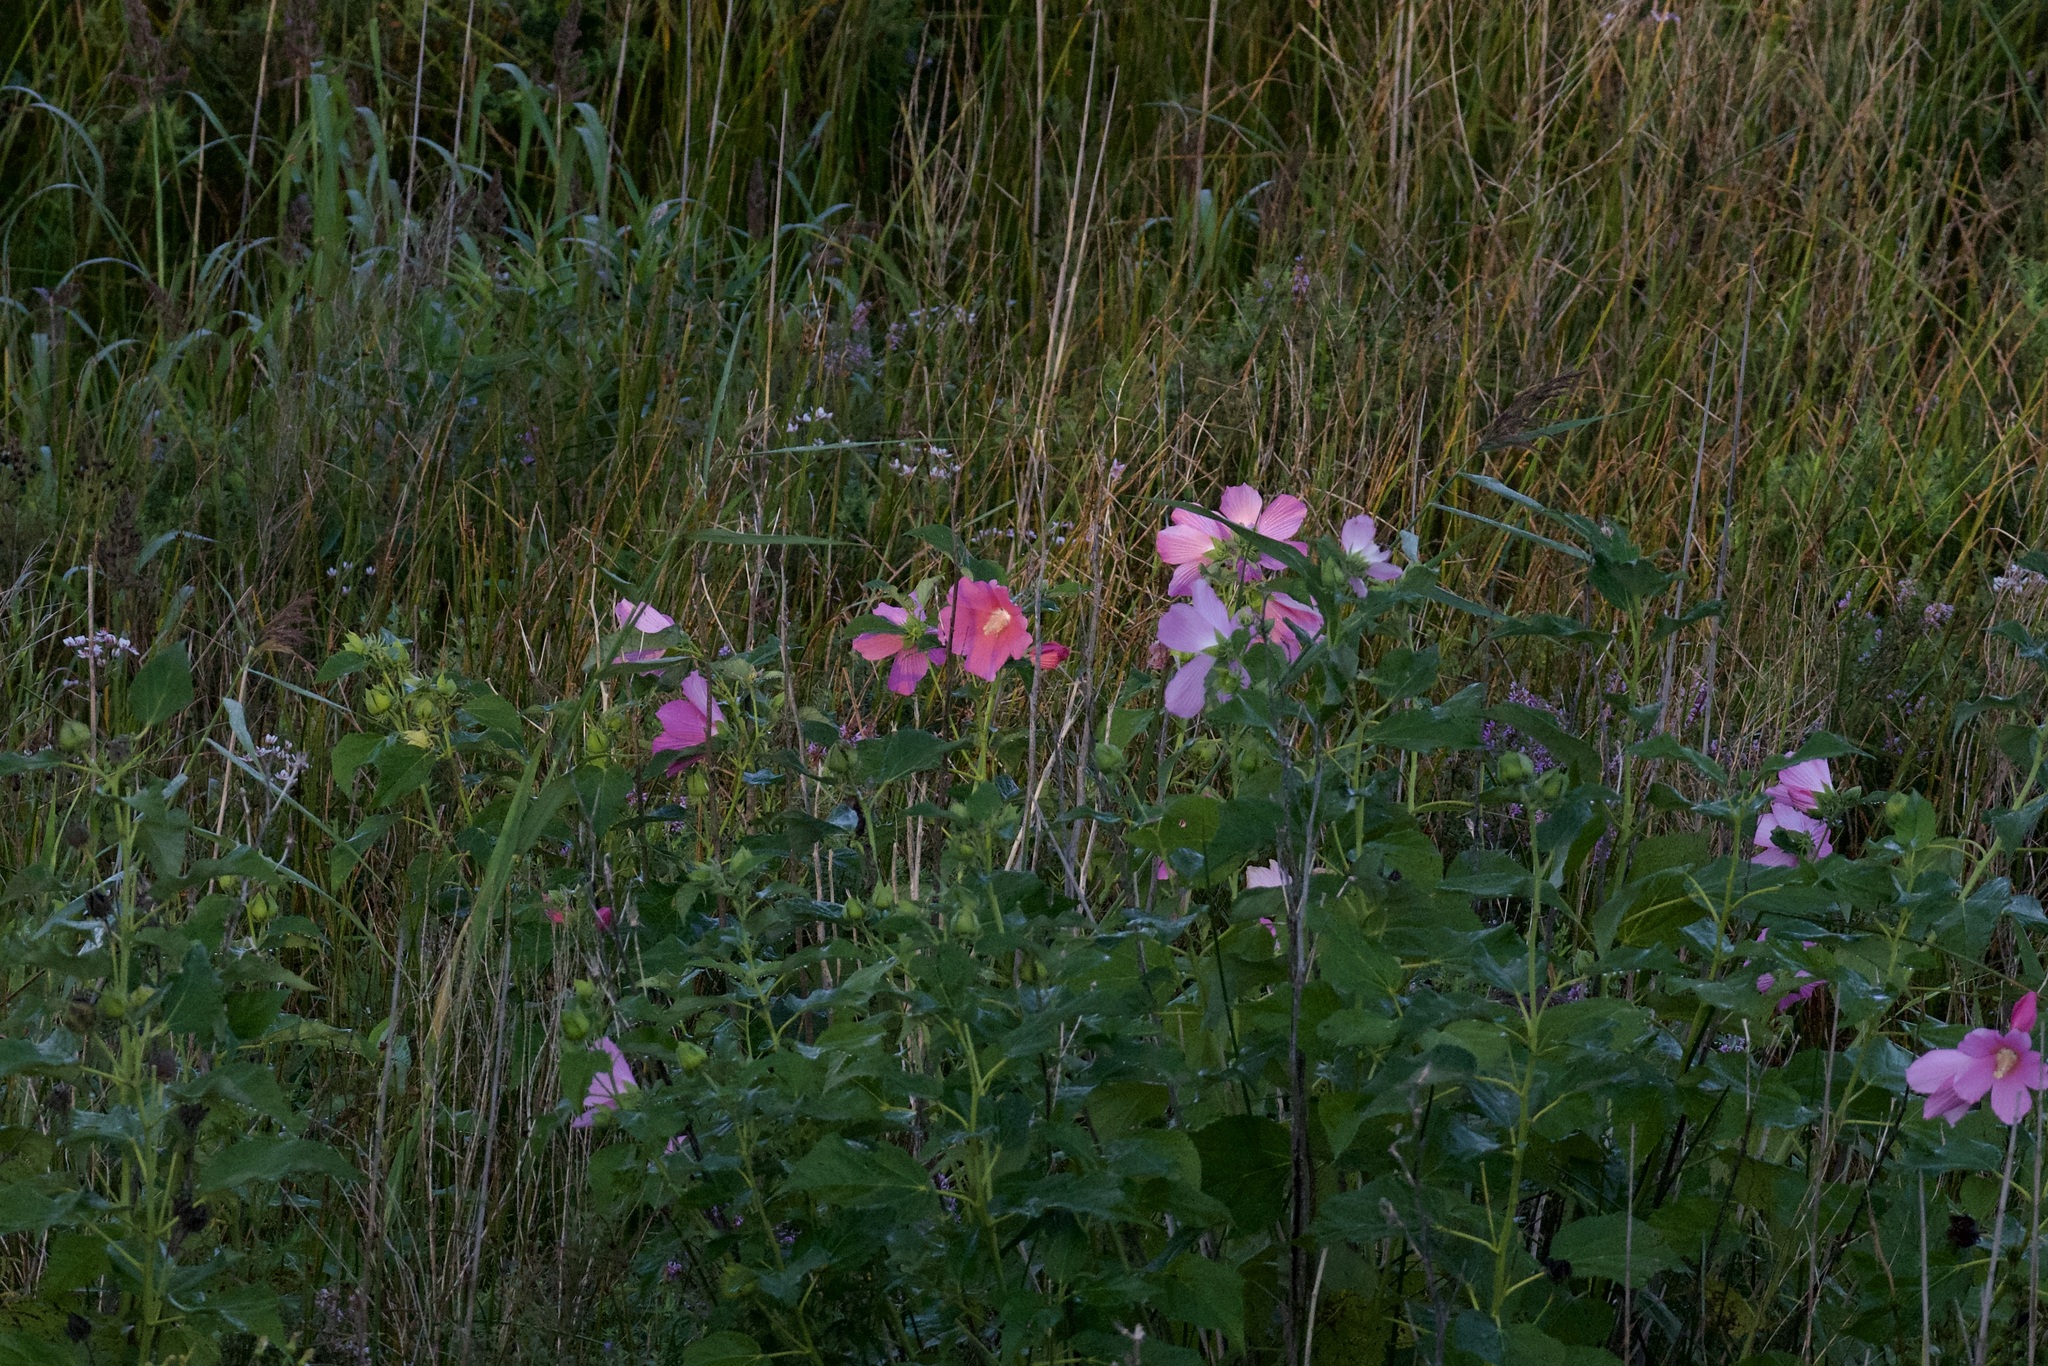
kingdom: Plantae
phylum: Tracheophyta
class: Magnoliopsida
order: Malvales
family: Malvaceae
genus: Hibiscus
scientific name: Hibiscus moscheutos
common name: Common rose-mallow
